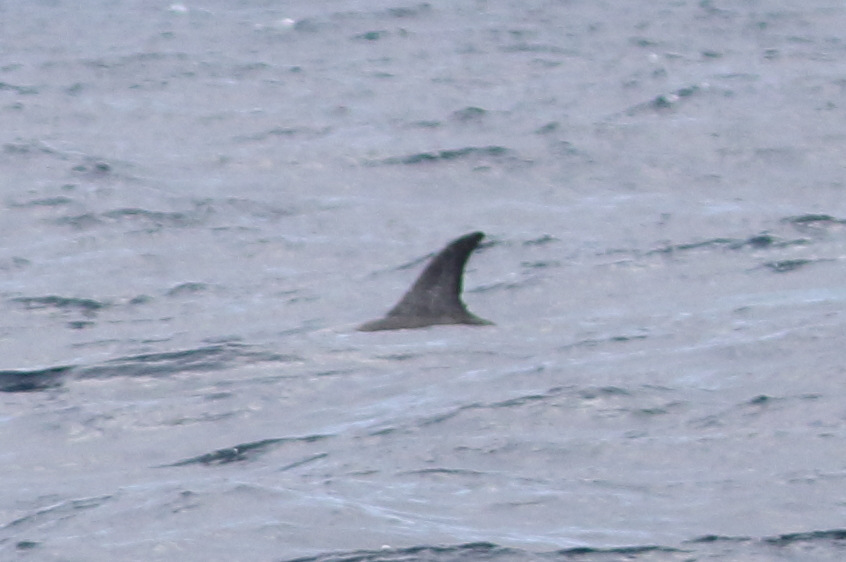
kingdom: Animalia
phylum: Chordata
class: Mammalia
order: Cetacea
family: Delphinidae
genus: Grampus
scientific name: Grampus griseus
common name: Risso's dolphin
